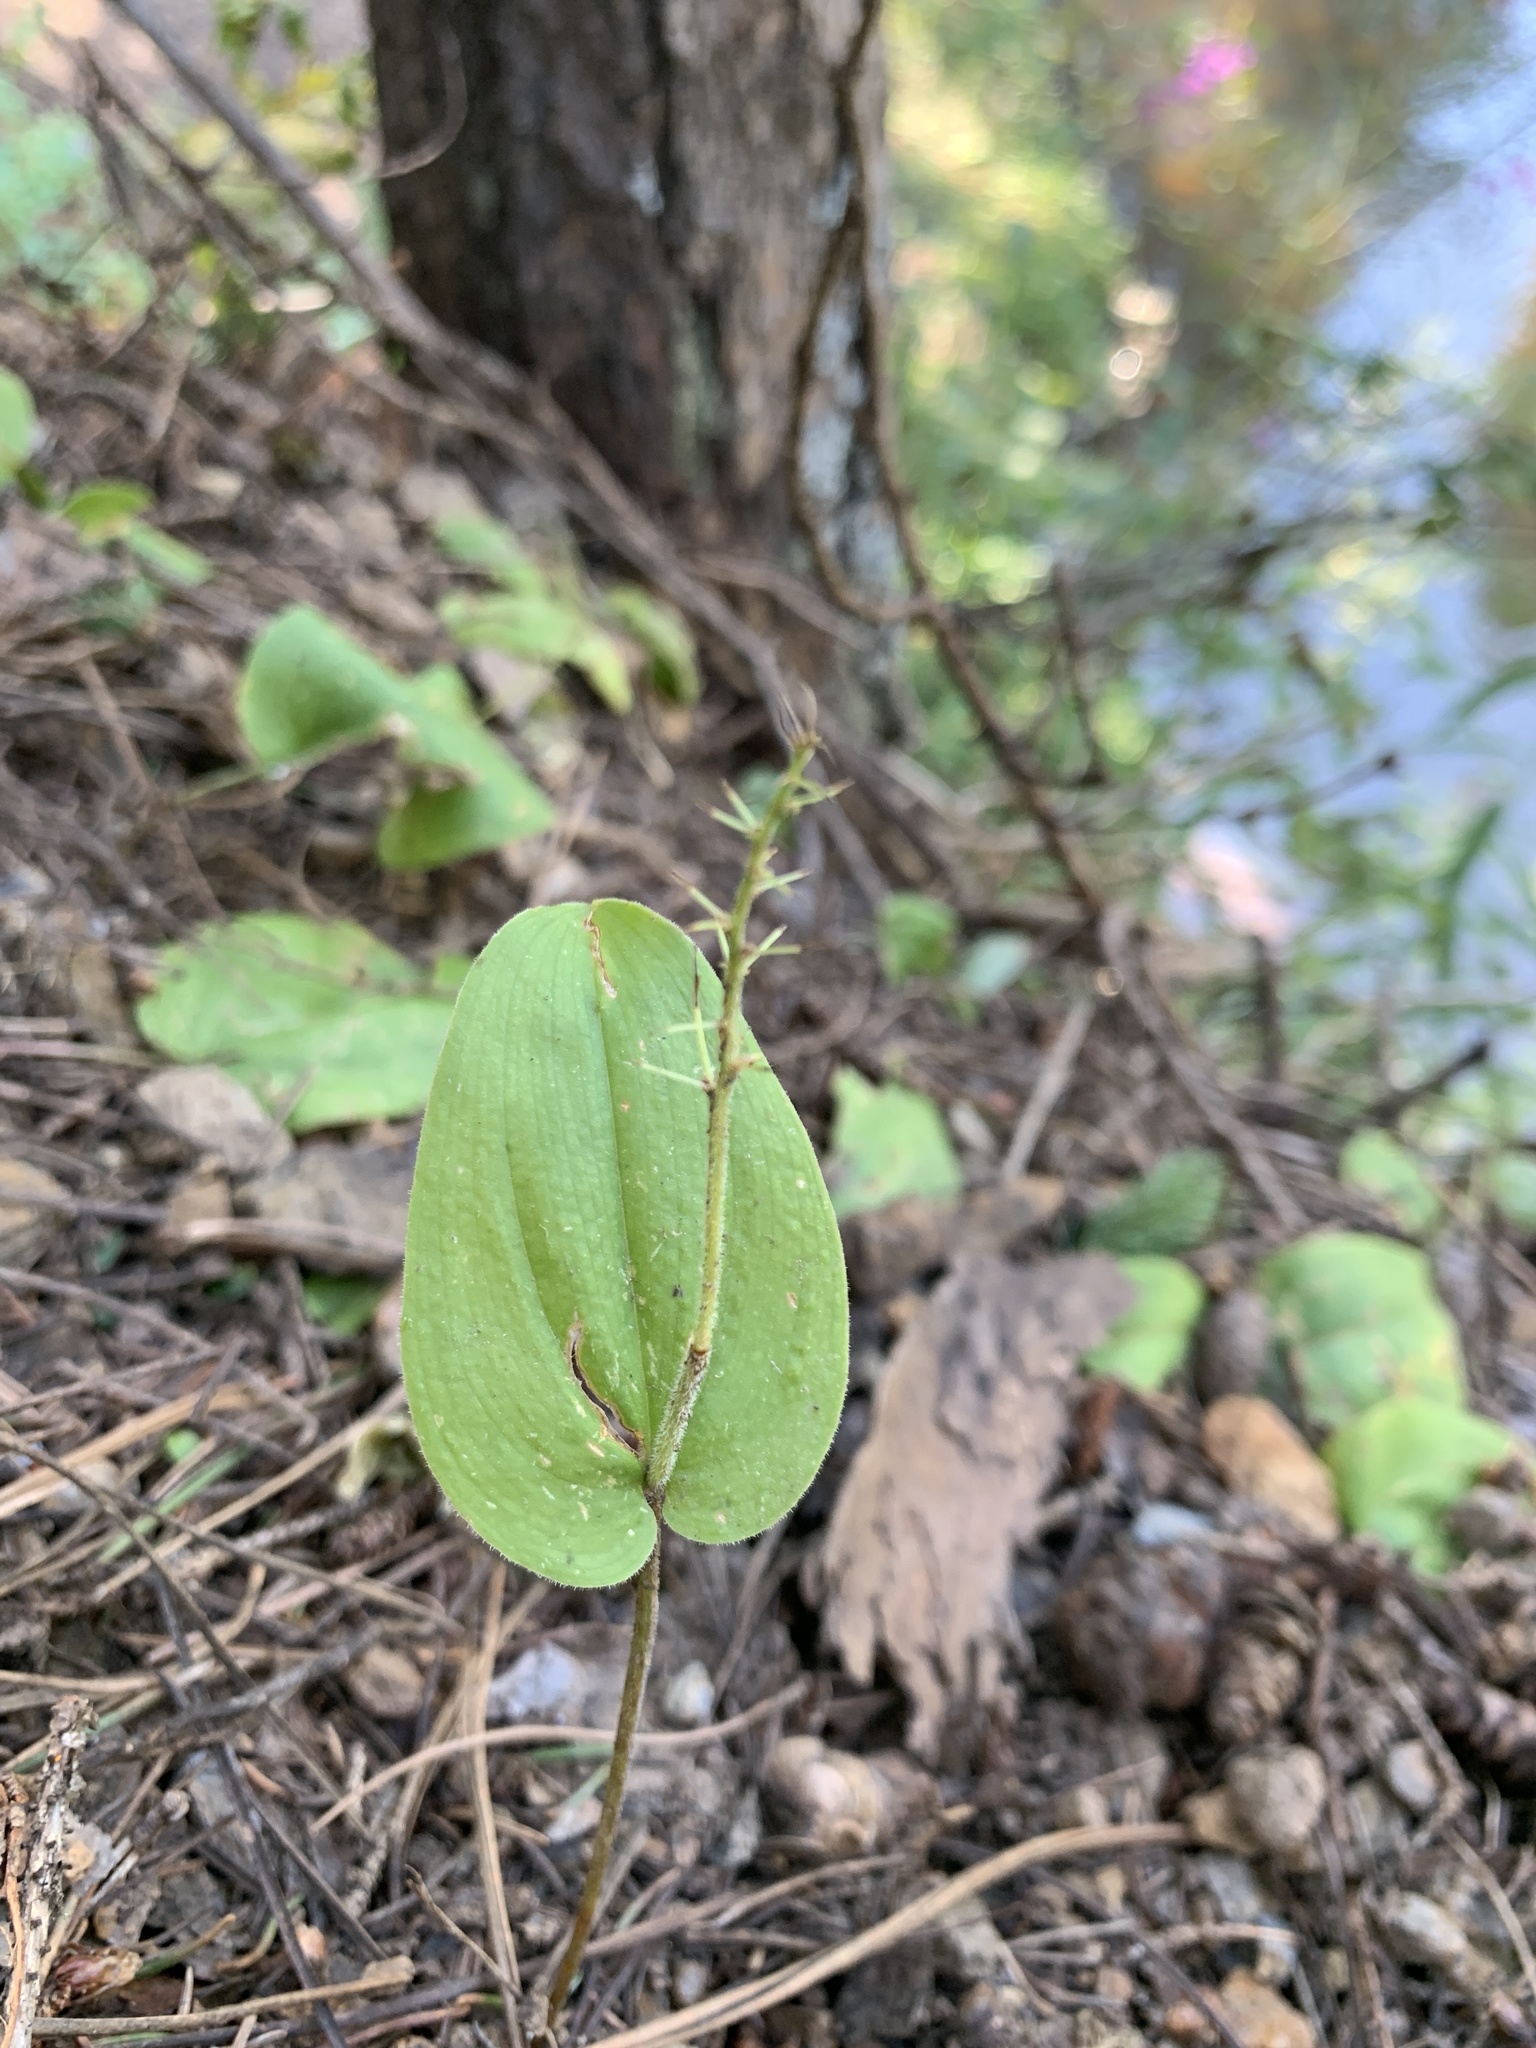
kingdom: Plantae
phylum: Tracheophyta
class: Liliopsida
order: Asparagales
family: Asparagaceae
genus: Maianthemum
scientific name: Maianthemum canadense
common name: False lily-of-the-valley
